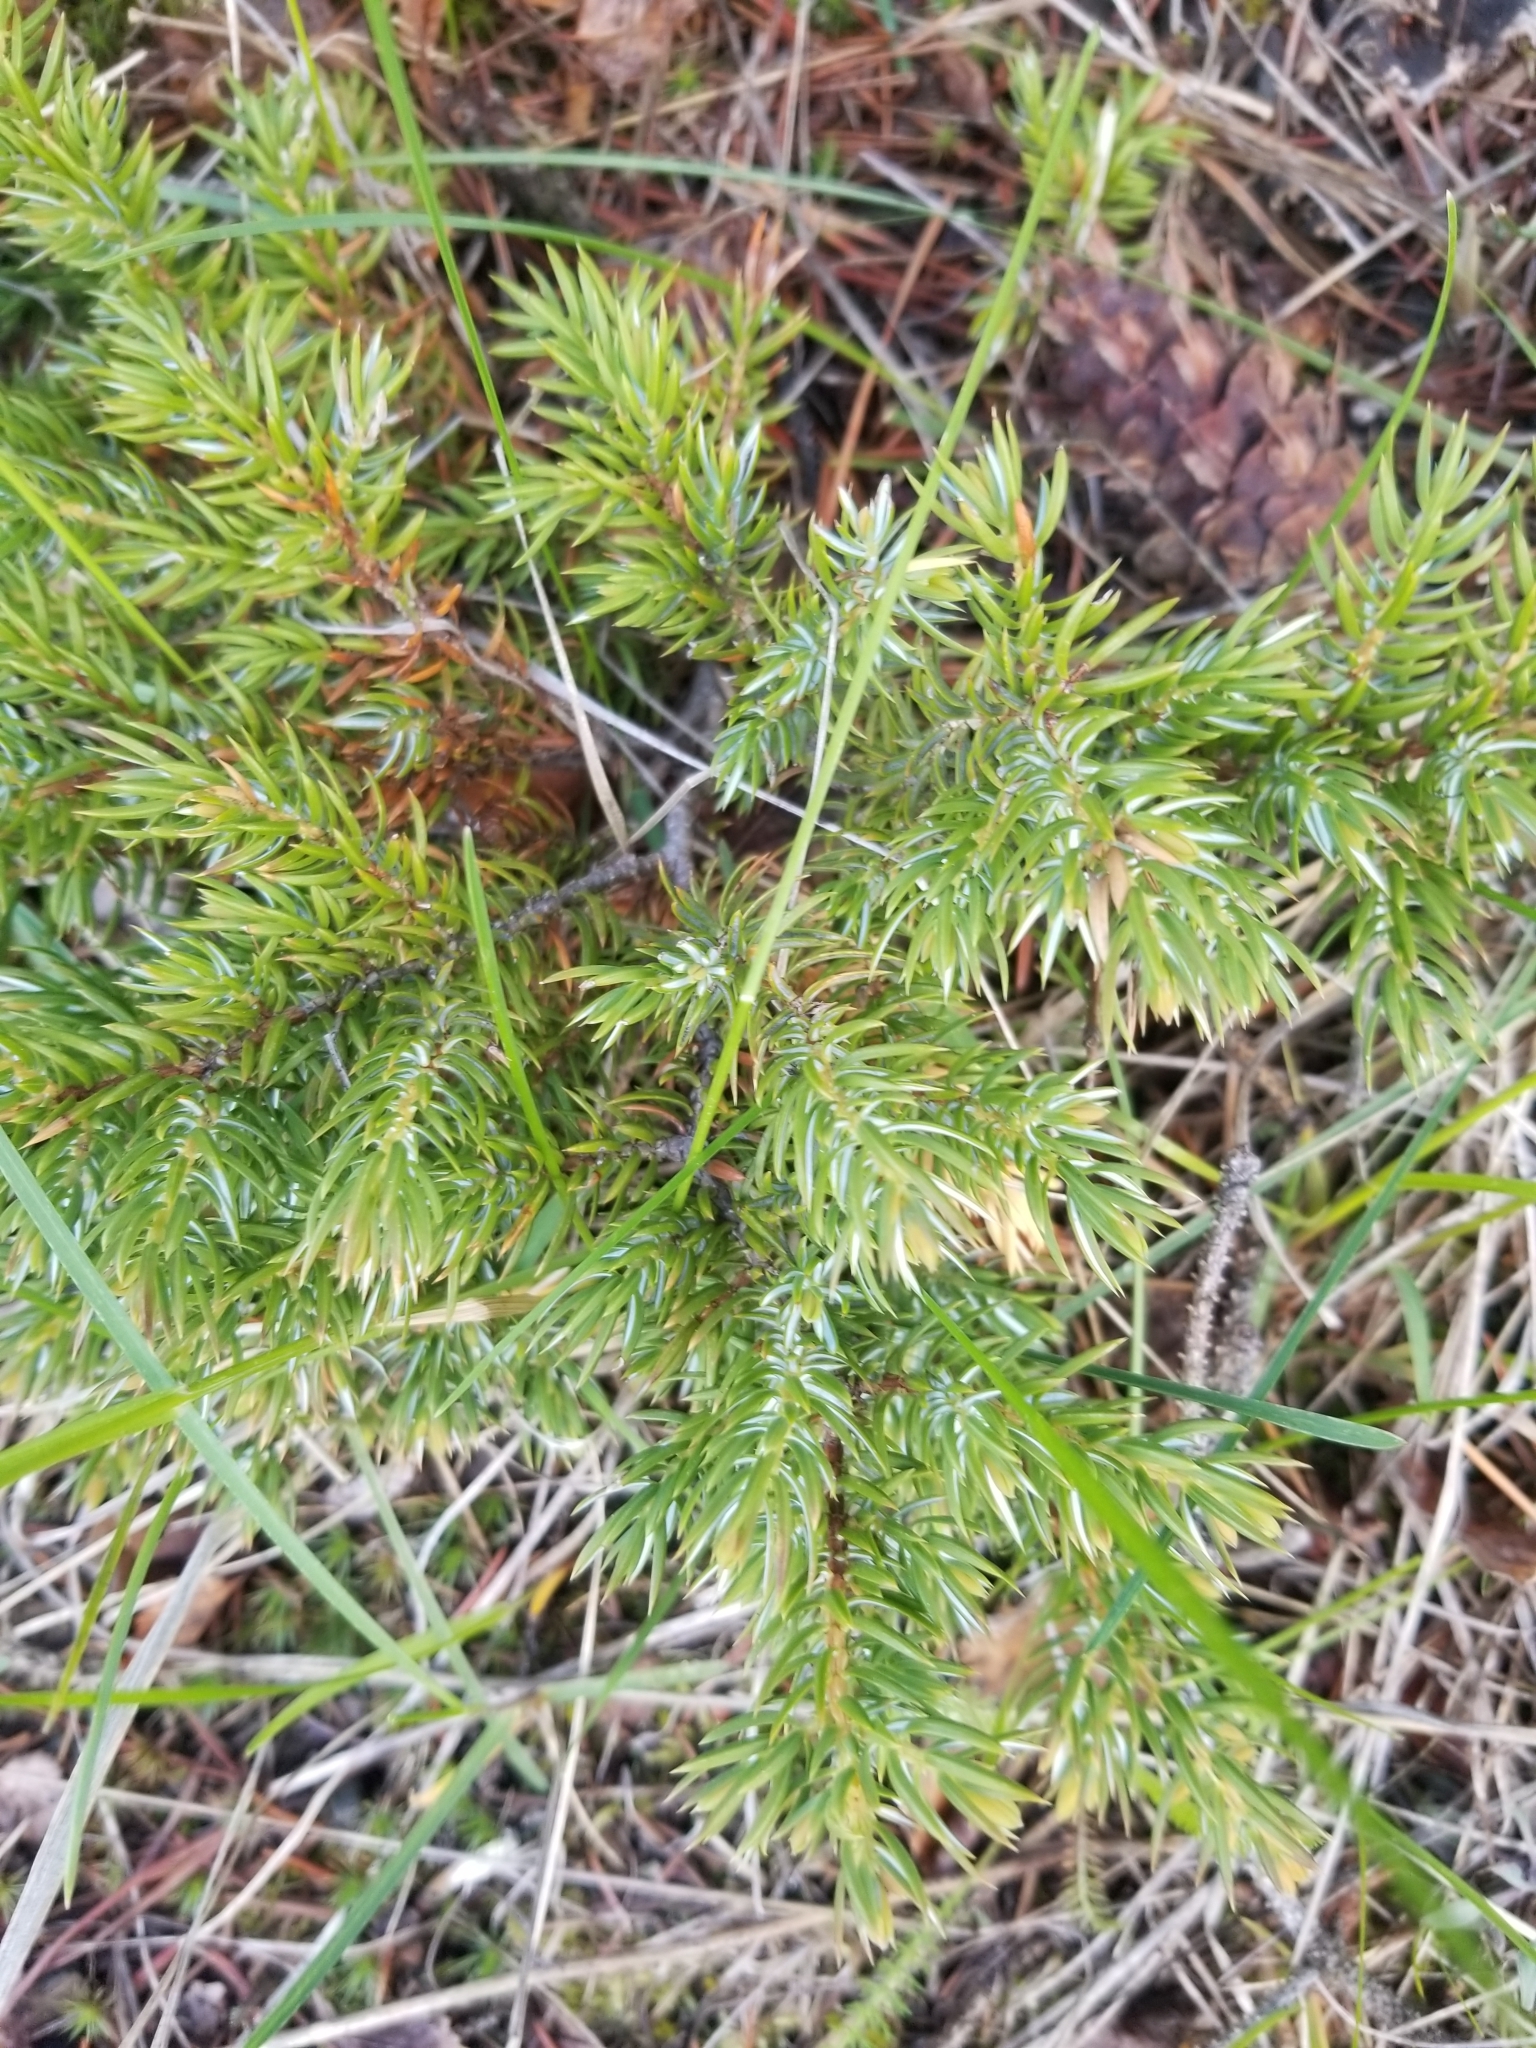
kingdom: Plantae
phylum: Tracheophyta
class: Pinopsida
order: Pinales
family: Cupressaceae
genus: Juniperus
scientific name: Juniperus communis
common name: Common juniper
